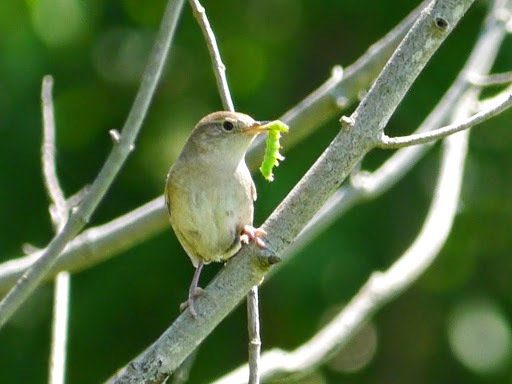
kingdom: Animalia
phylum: Chordata
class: Aves
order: Passeriformes
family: Troglodytidae
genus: Troglodytes
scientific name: Troglodytes aedon
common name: House wren
